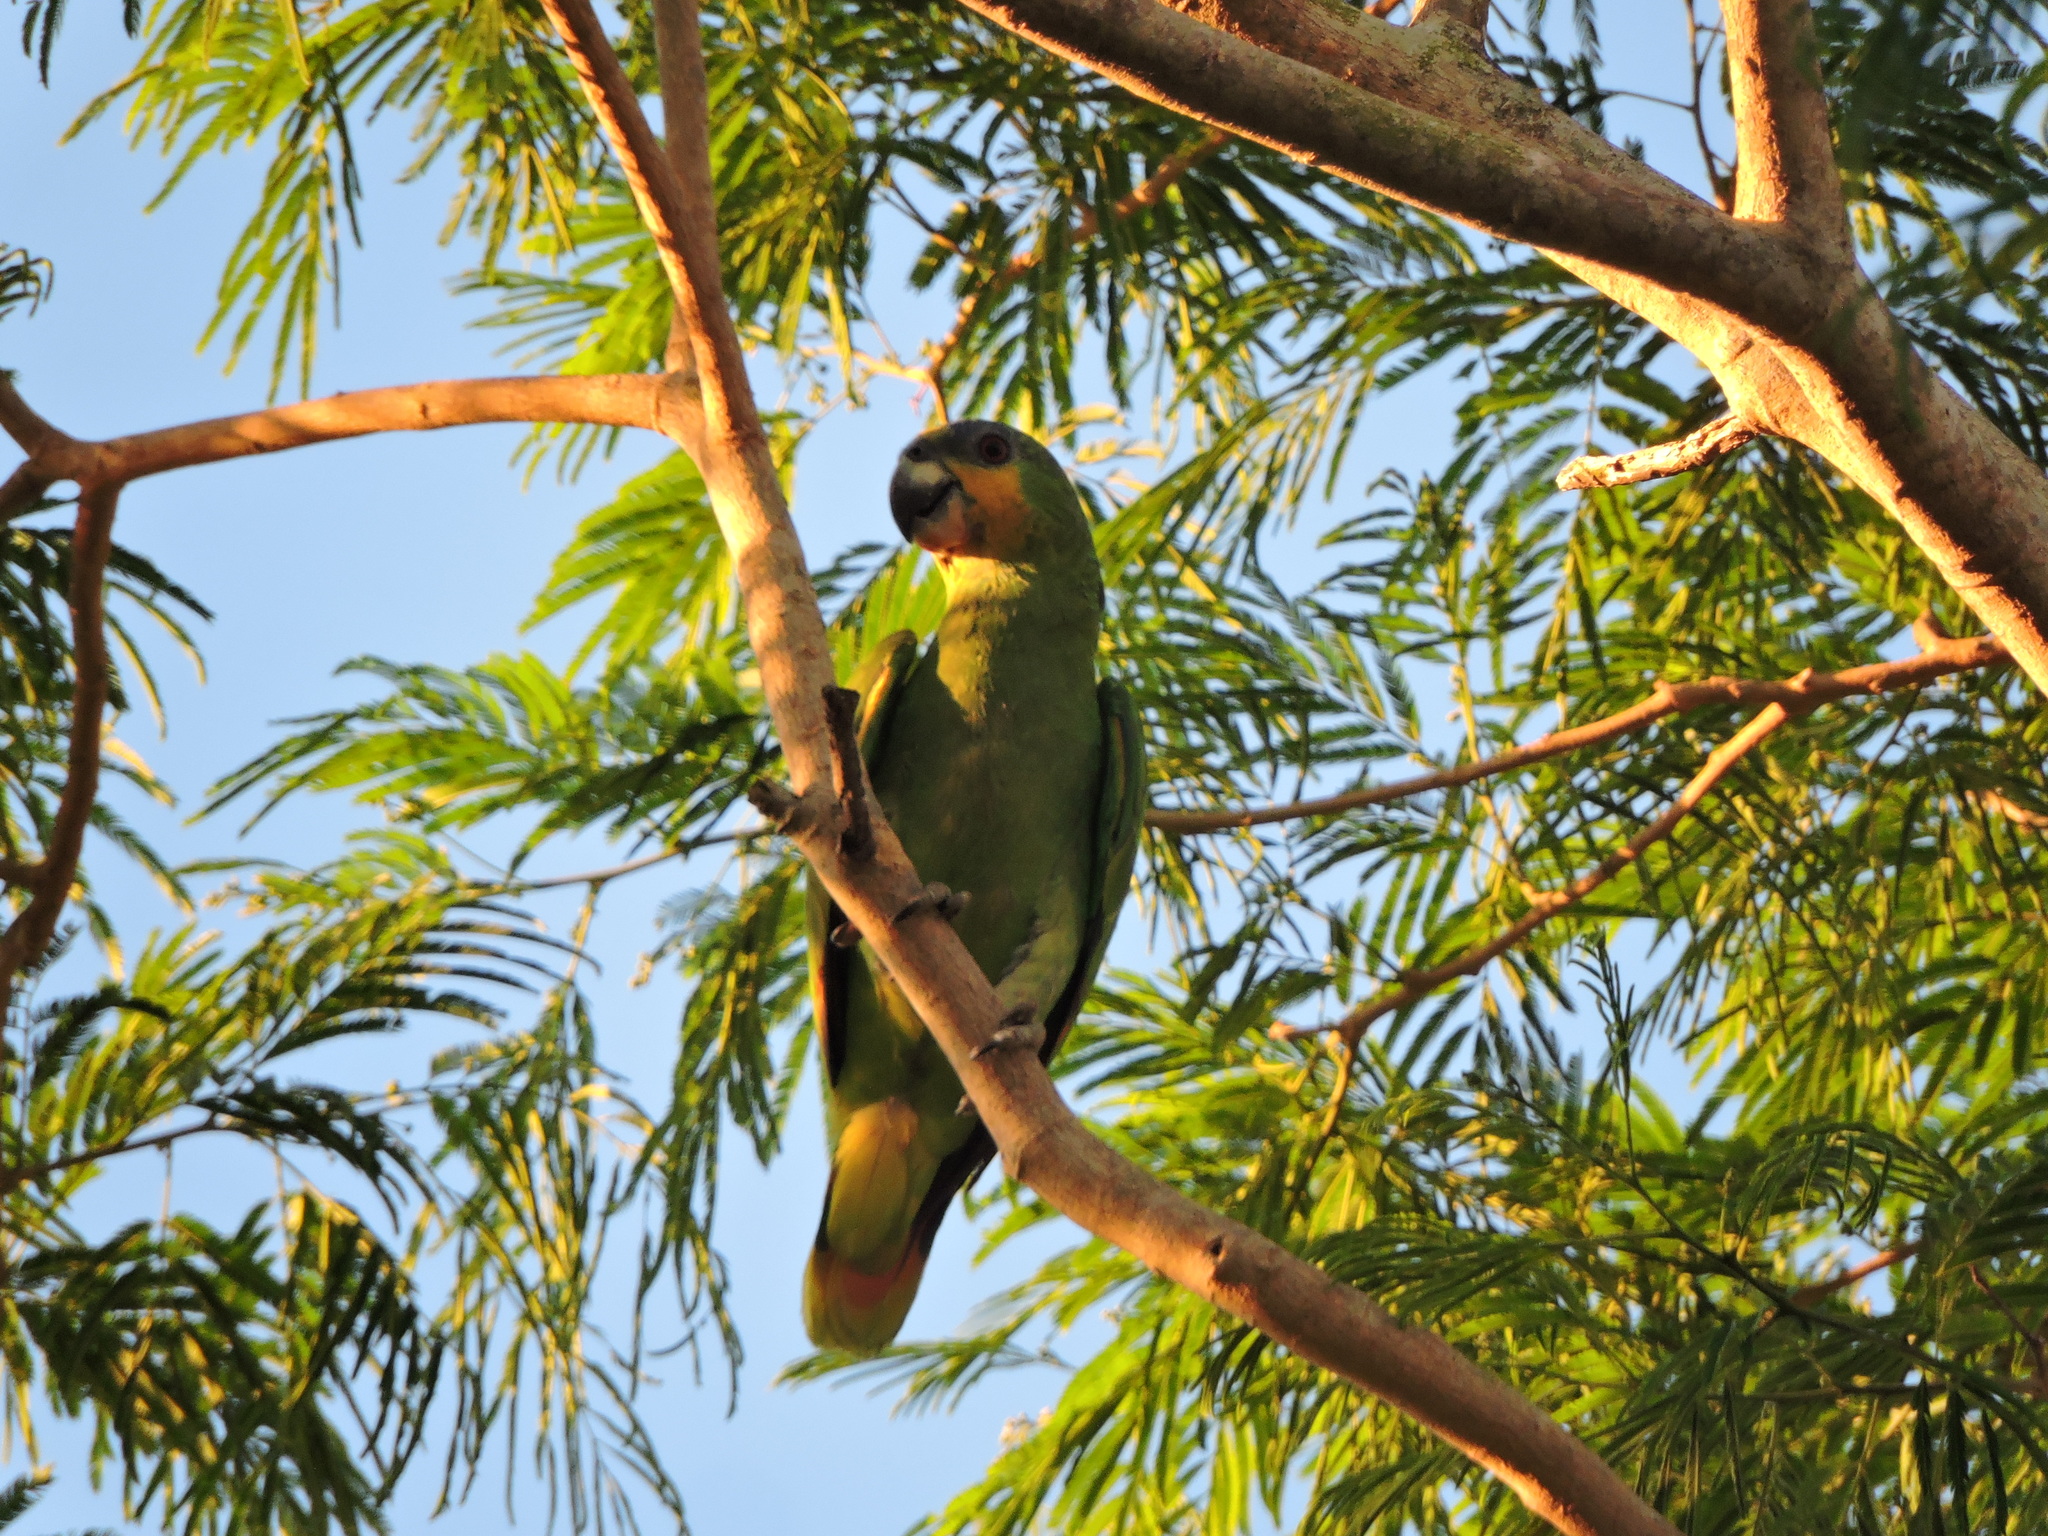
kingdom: Animalia
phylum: Chordata
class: Aves
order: Psittaciformes
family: Psittacidae
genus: Amazona
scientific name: Amazona amazonica
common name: Orange-winged amazon
